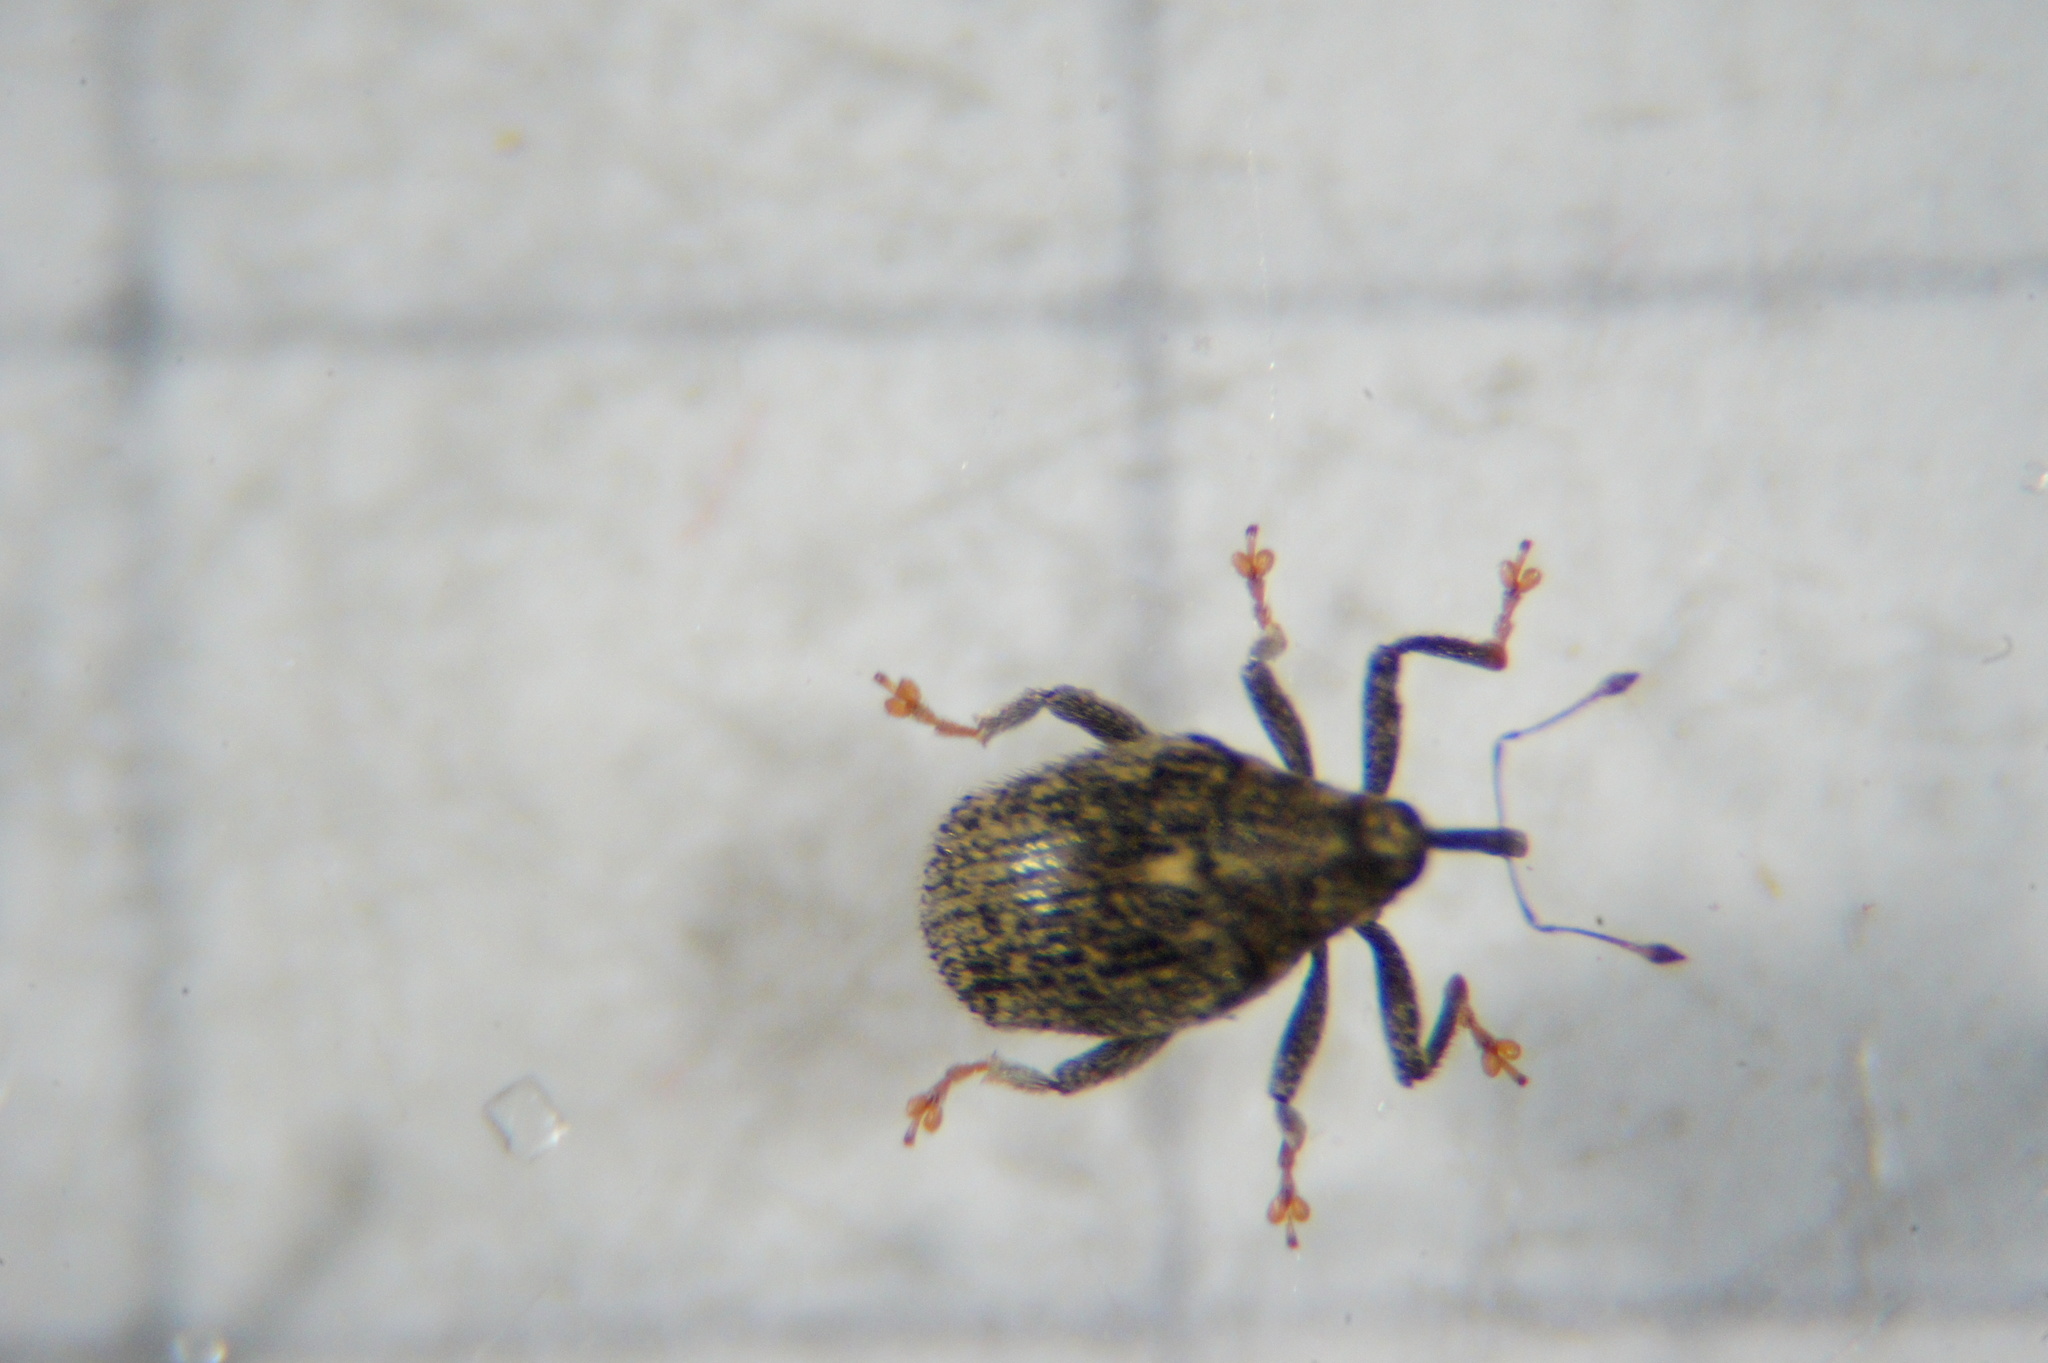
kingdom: Animalia
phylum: Arthropoda
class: Insecta
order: Coleoptera
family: Curculionidae
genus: Ceutorhynchus
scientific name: Ceutorhynchus pallidactylus
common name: Cabbage stem weavil
